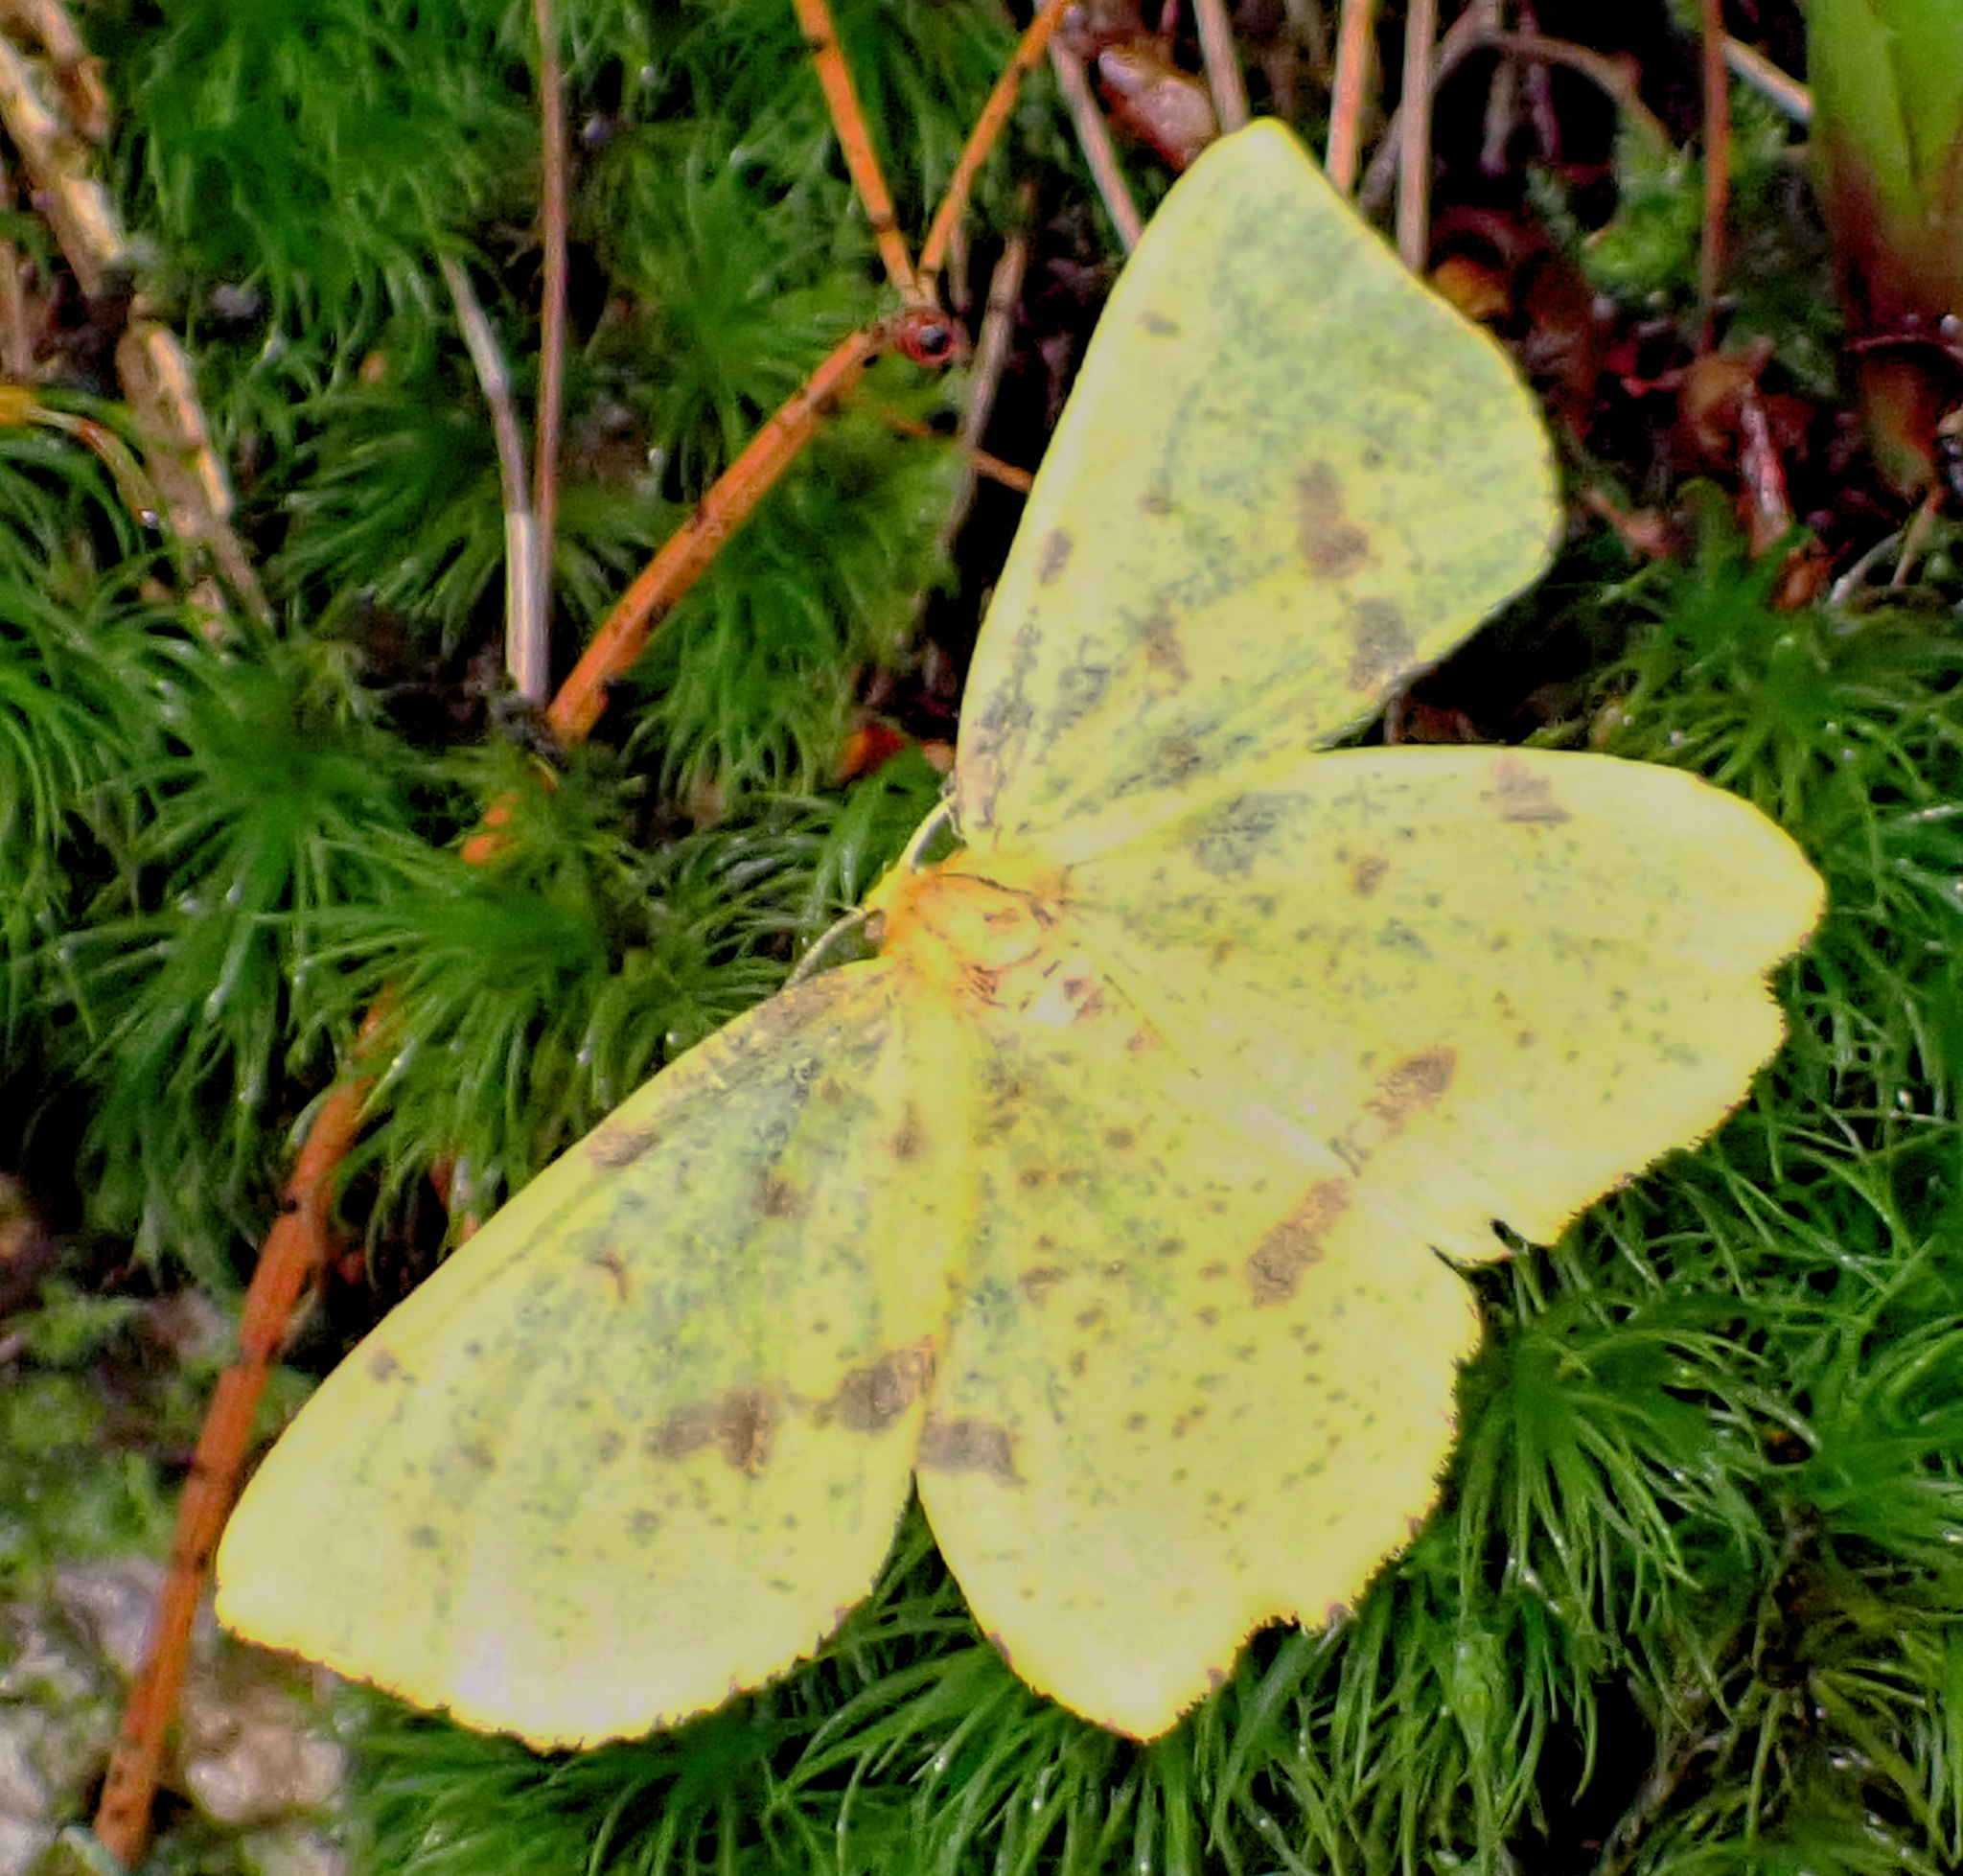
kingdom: Animalia
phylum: Arthropoda
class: Insecta
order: Lepidoptera
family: Geometridae
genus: Xanthotype
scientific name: Xanthotype
